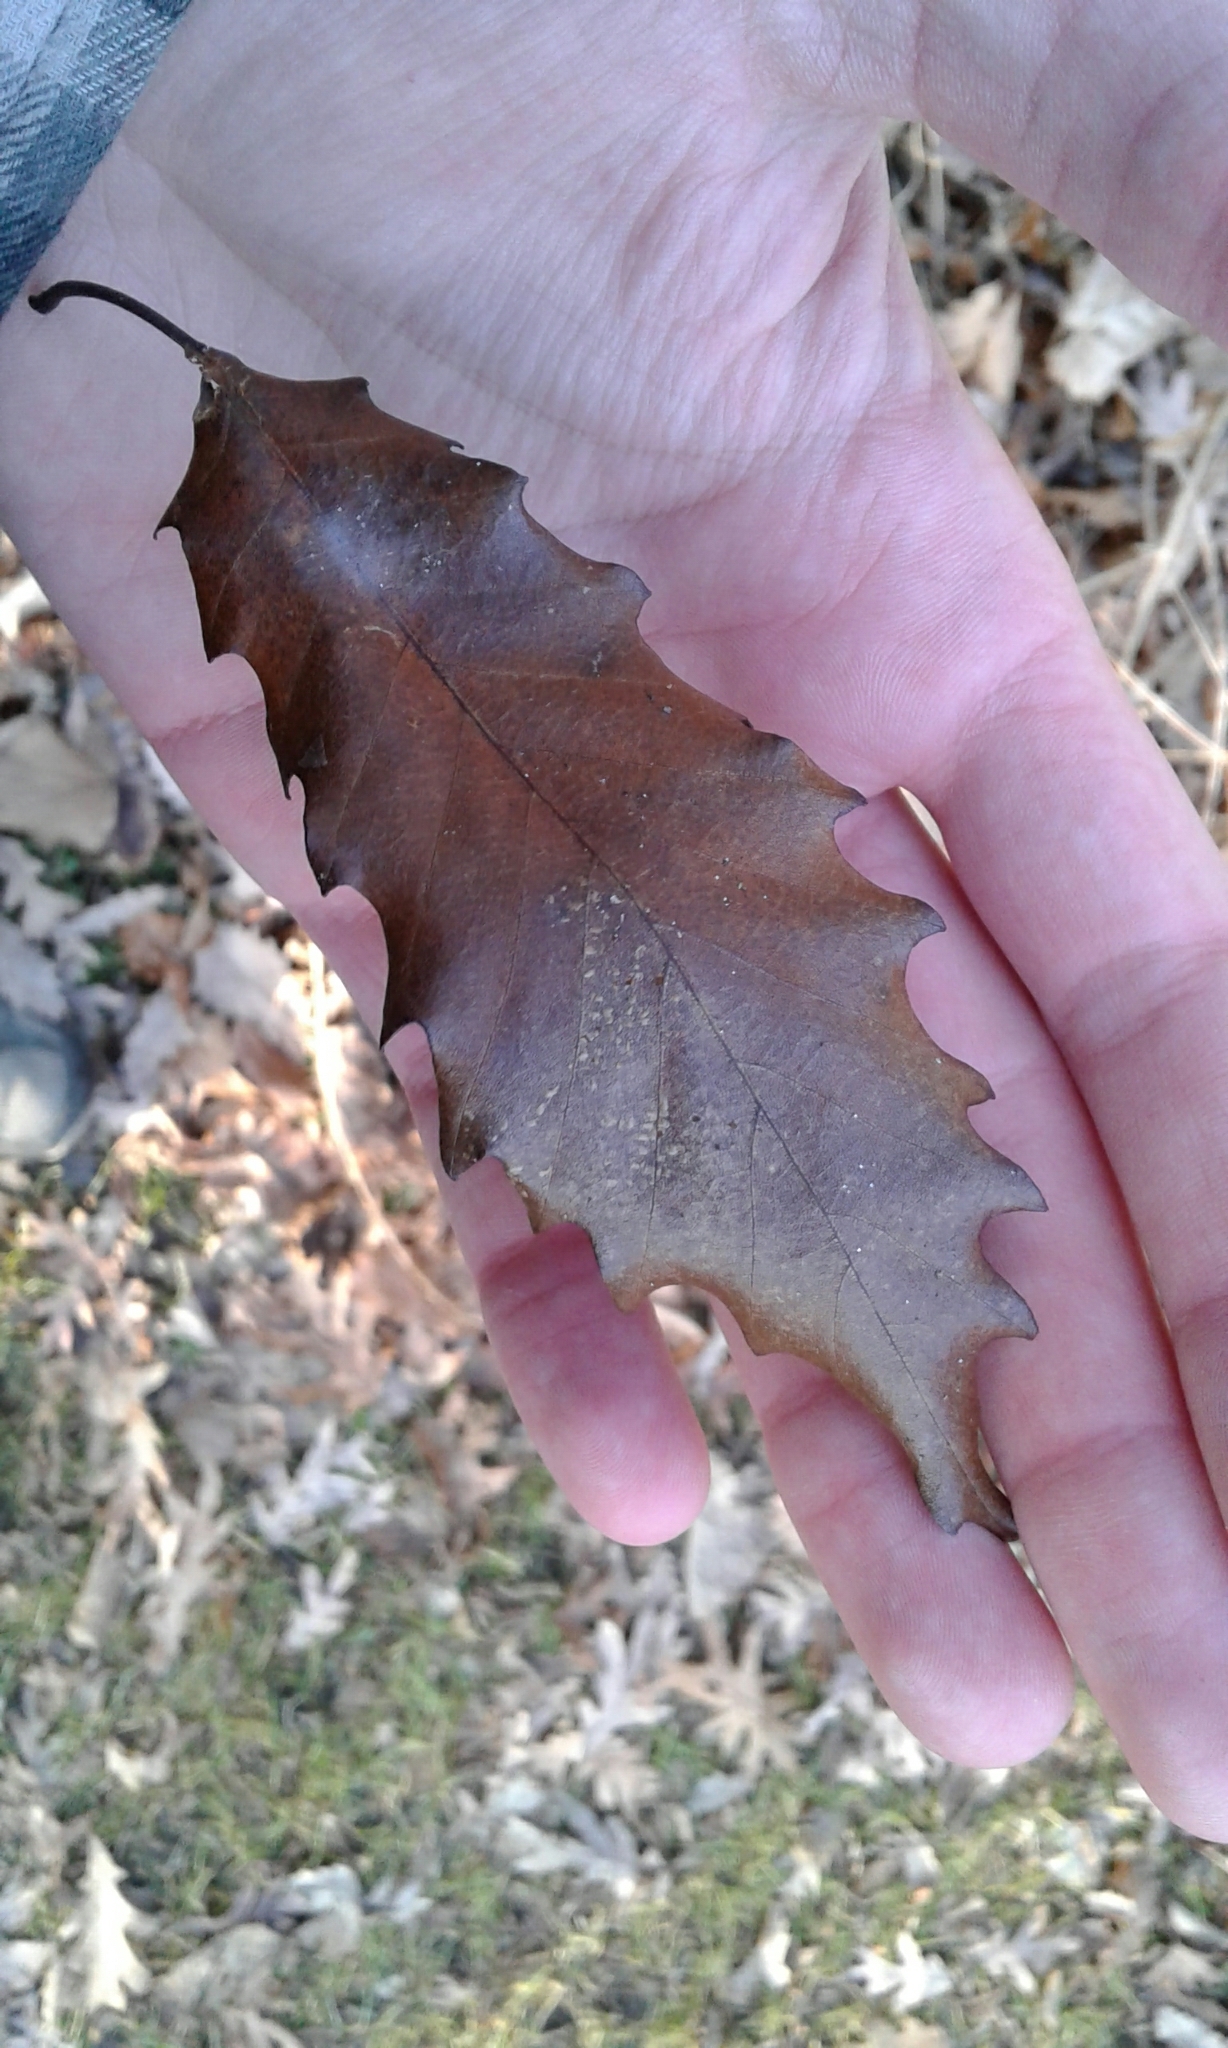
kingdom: Plantae
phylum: Tracheophyta
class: Magnoliopsida
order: Fagales
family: Fagaceae
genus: Quercus
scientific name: Quercus muehlenbergii
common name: Chinkapin oak
